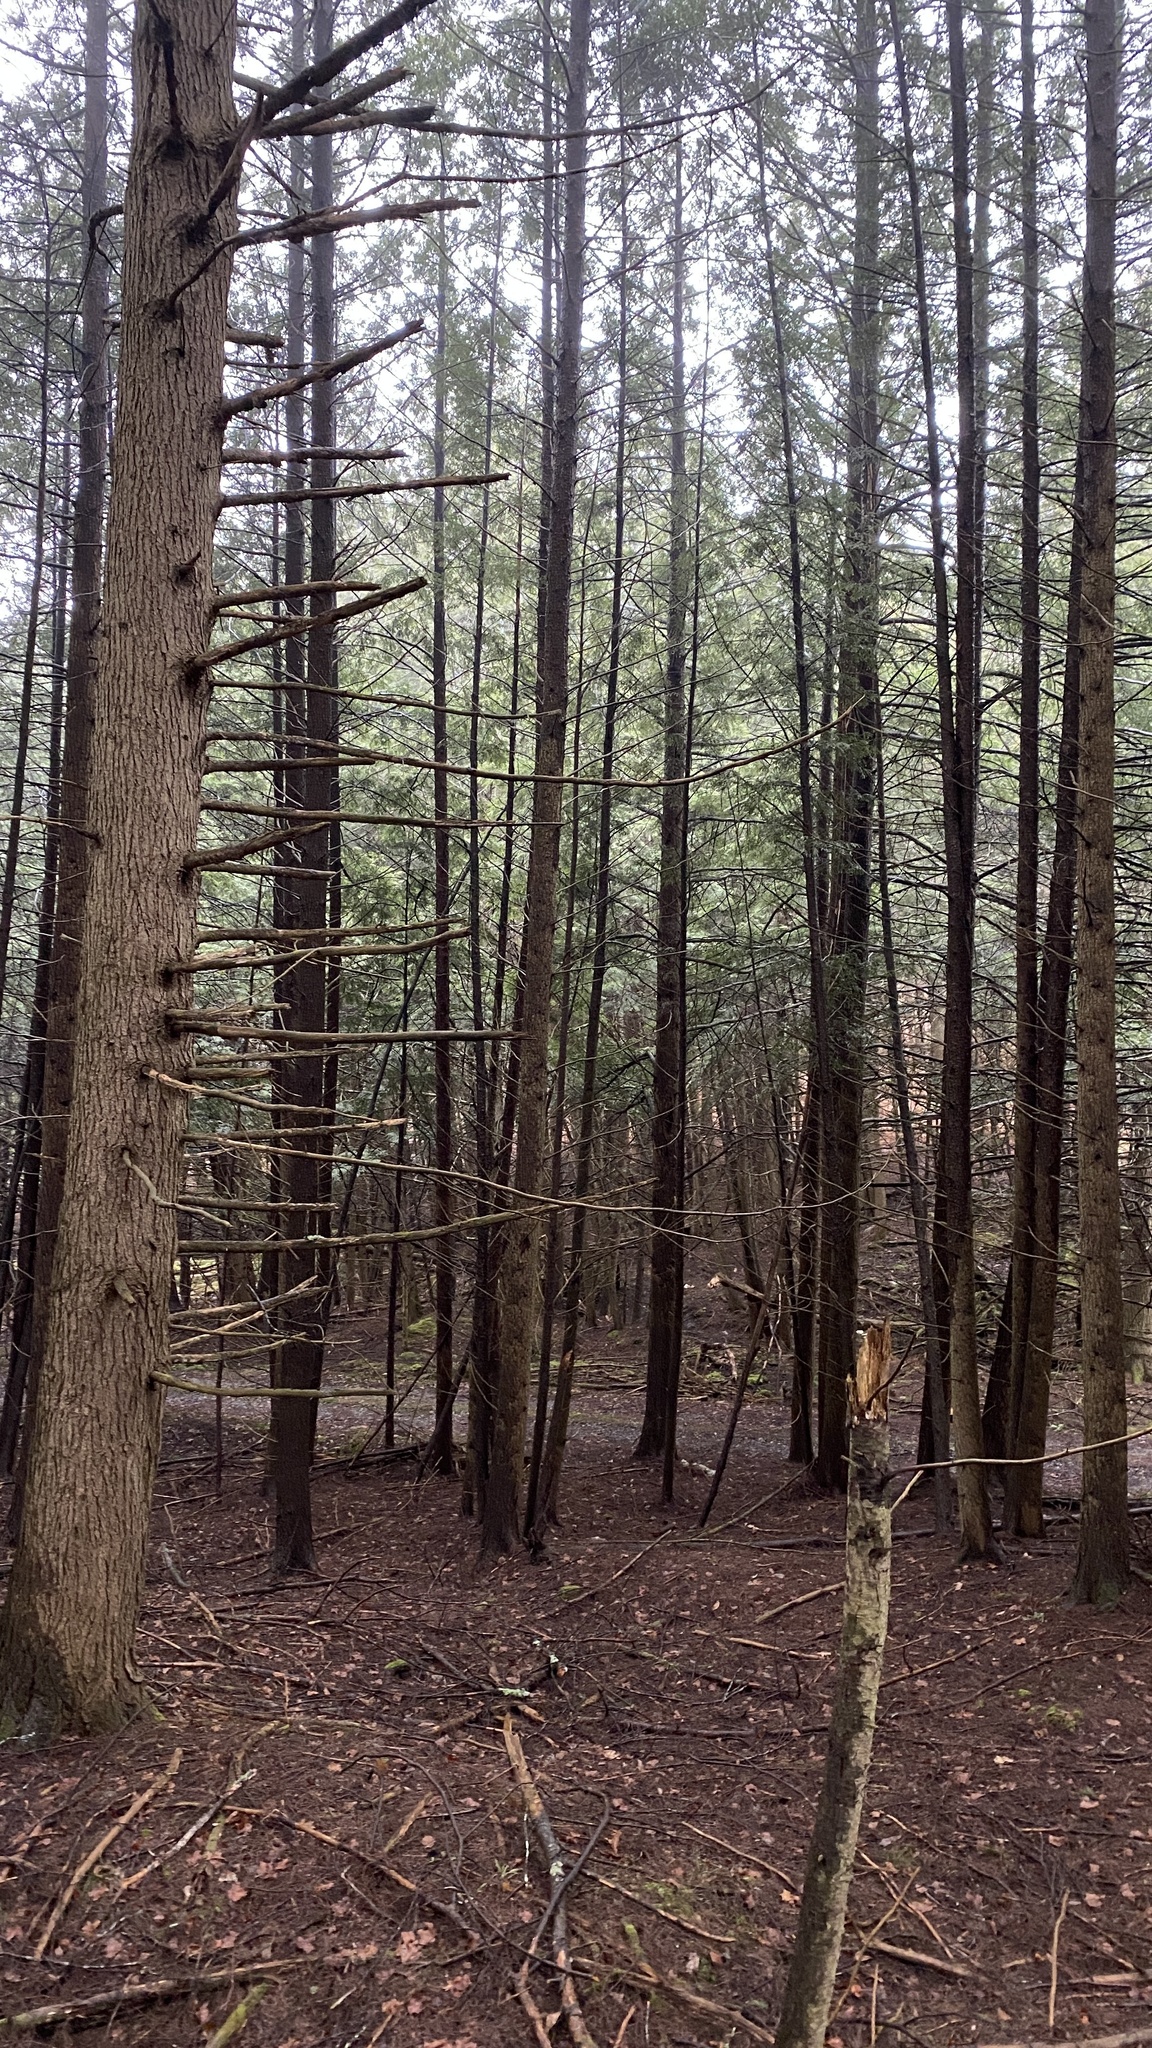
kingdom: Plantae
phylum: Tracheophyta
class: Pinopsida
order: Pinales
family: Pinaceae
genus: Tsuga
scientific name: Tsuga canadensis
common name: Eastern hemlock
